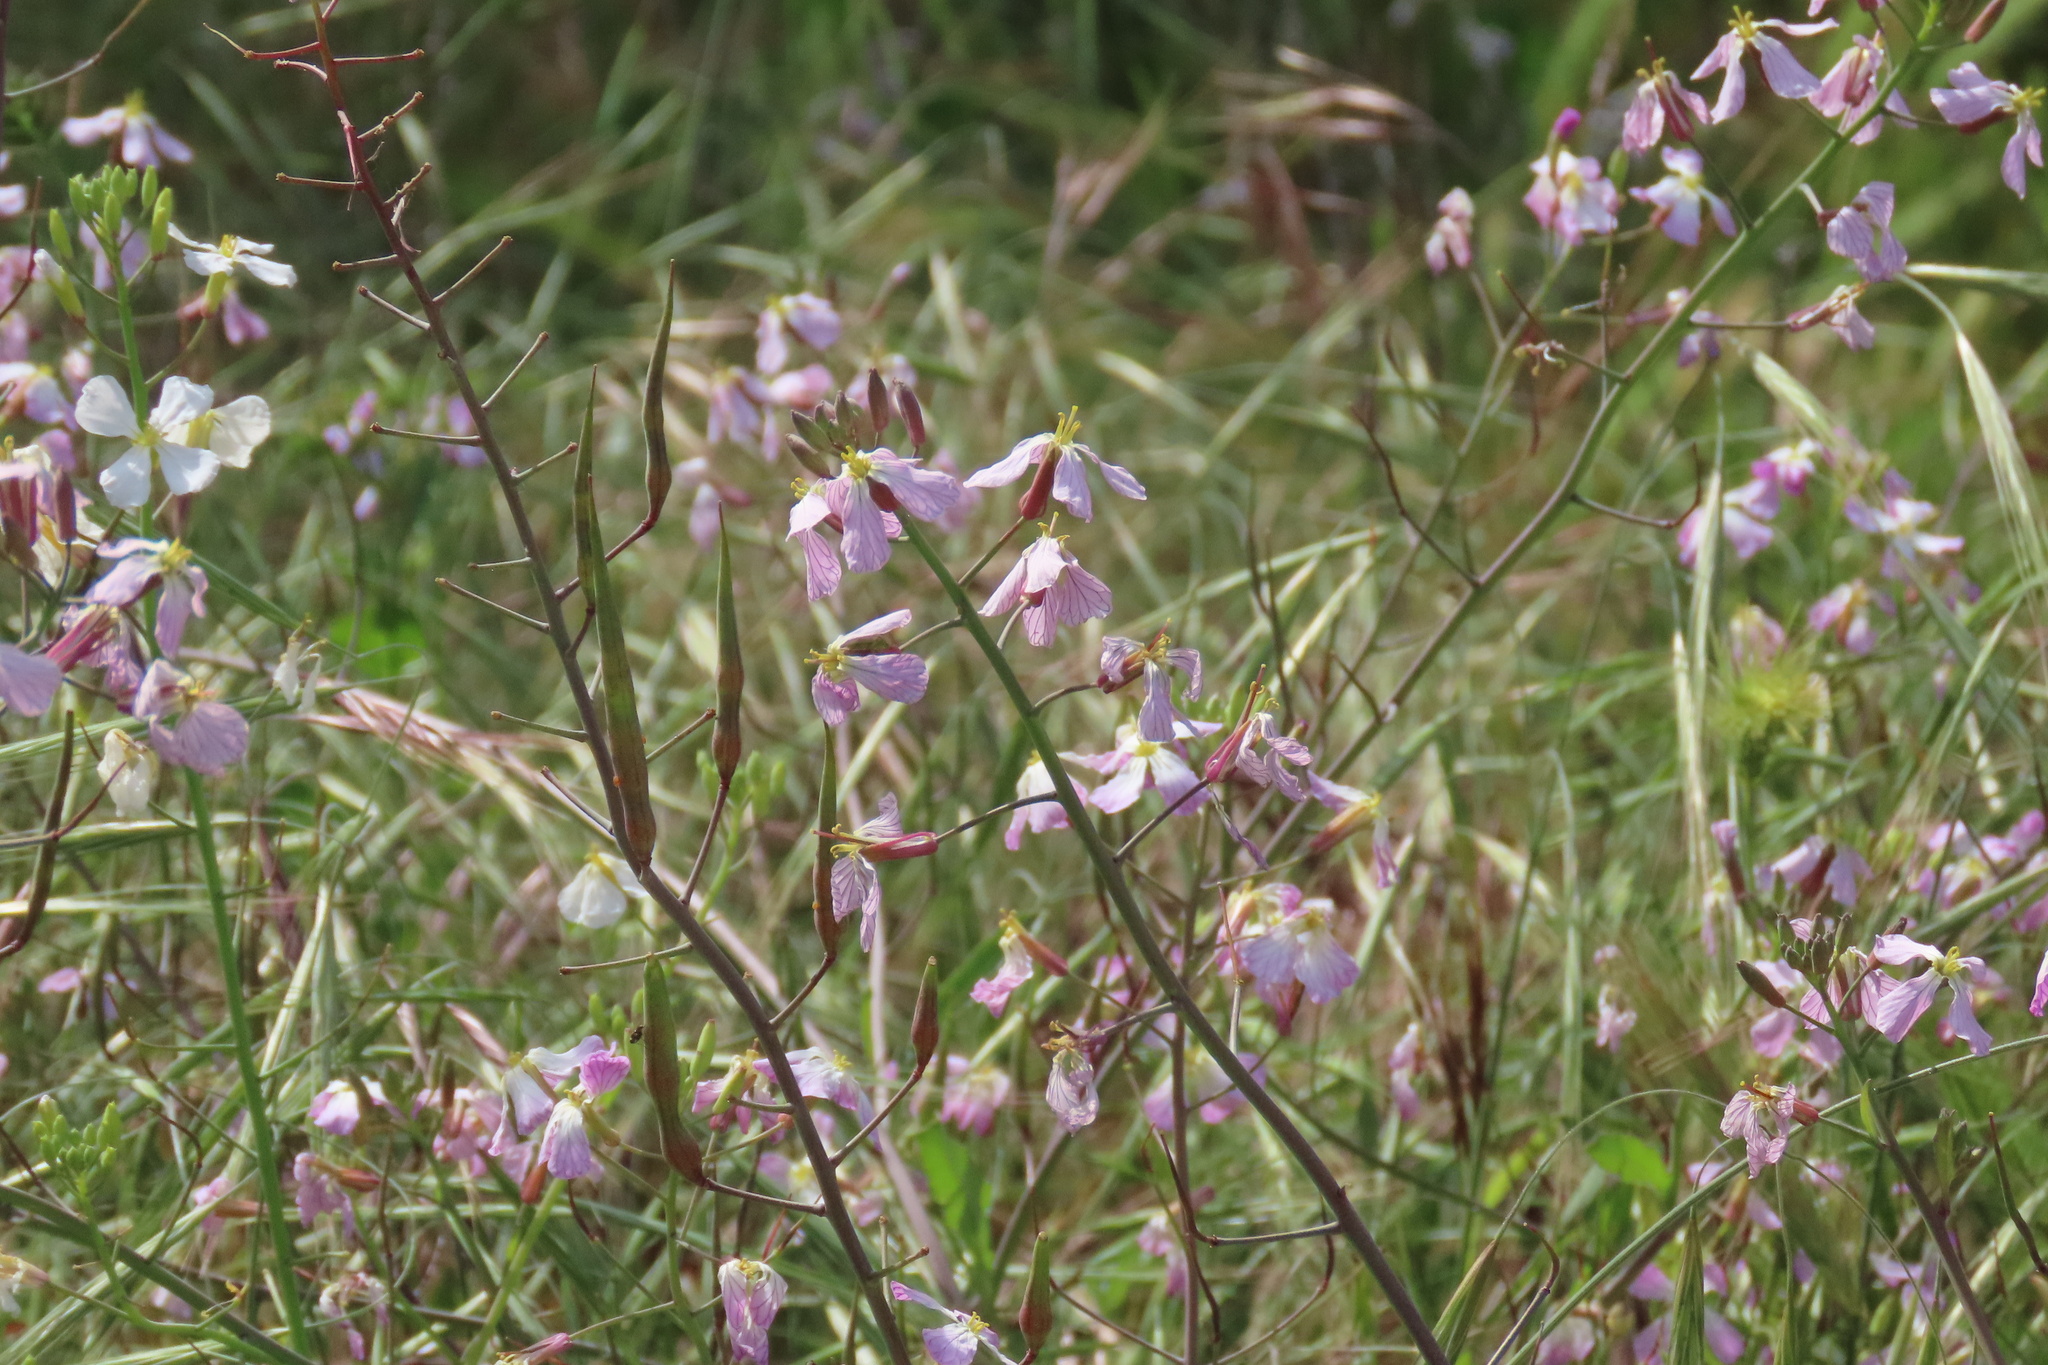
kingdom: Plantae
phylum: Tracheophyta
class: Magnoliopsida
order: Brassicales
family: Brassicaceae
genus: Raphanus
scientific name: Raphanus sativus
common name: Cultivated radish
